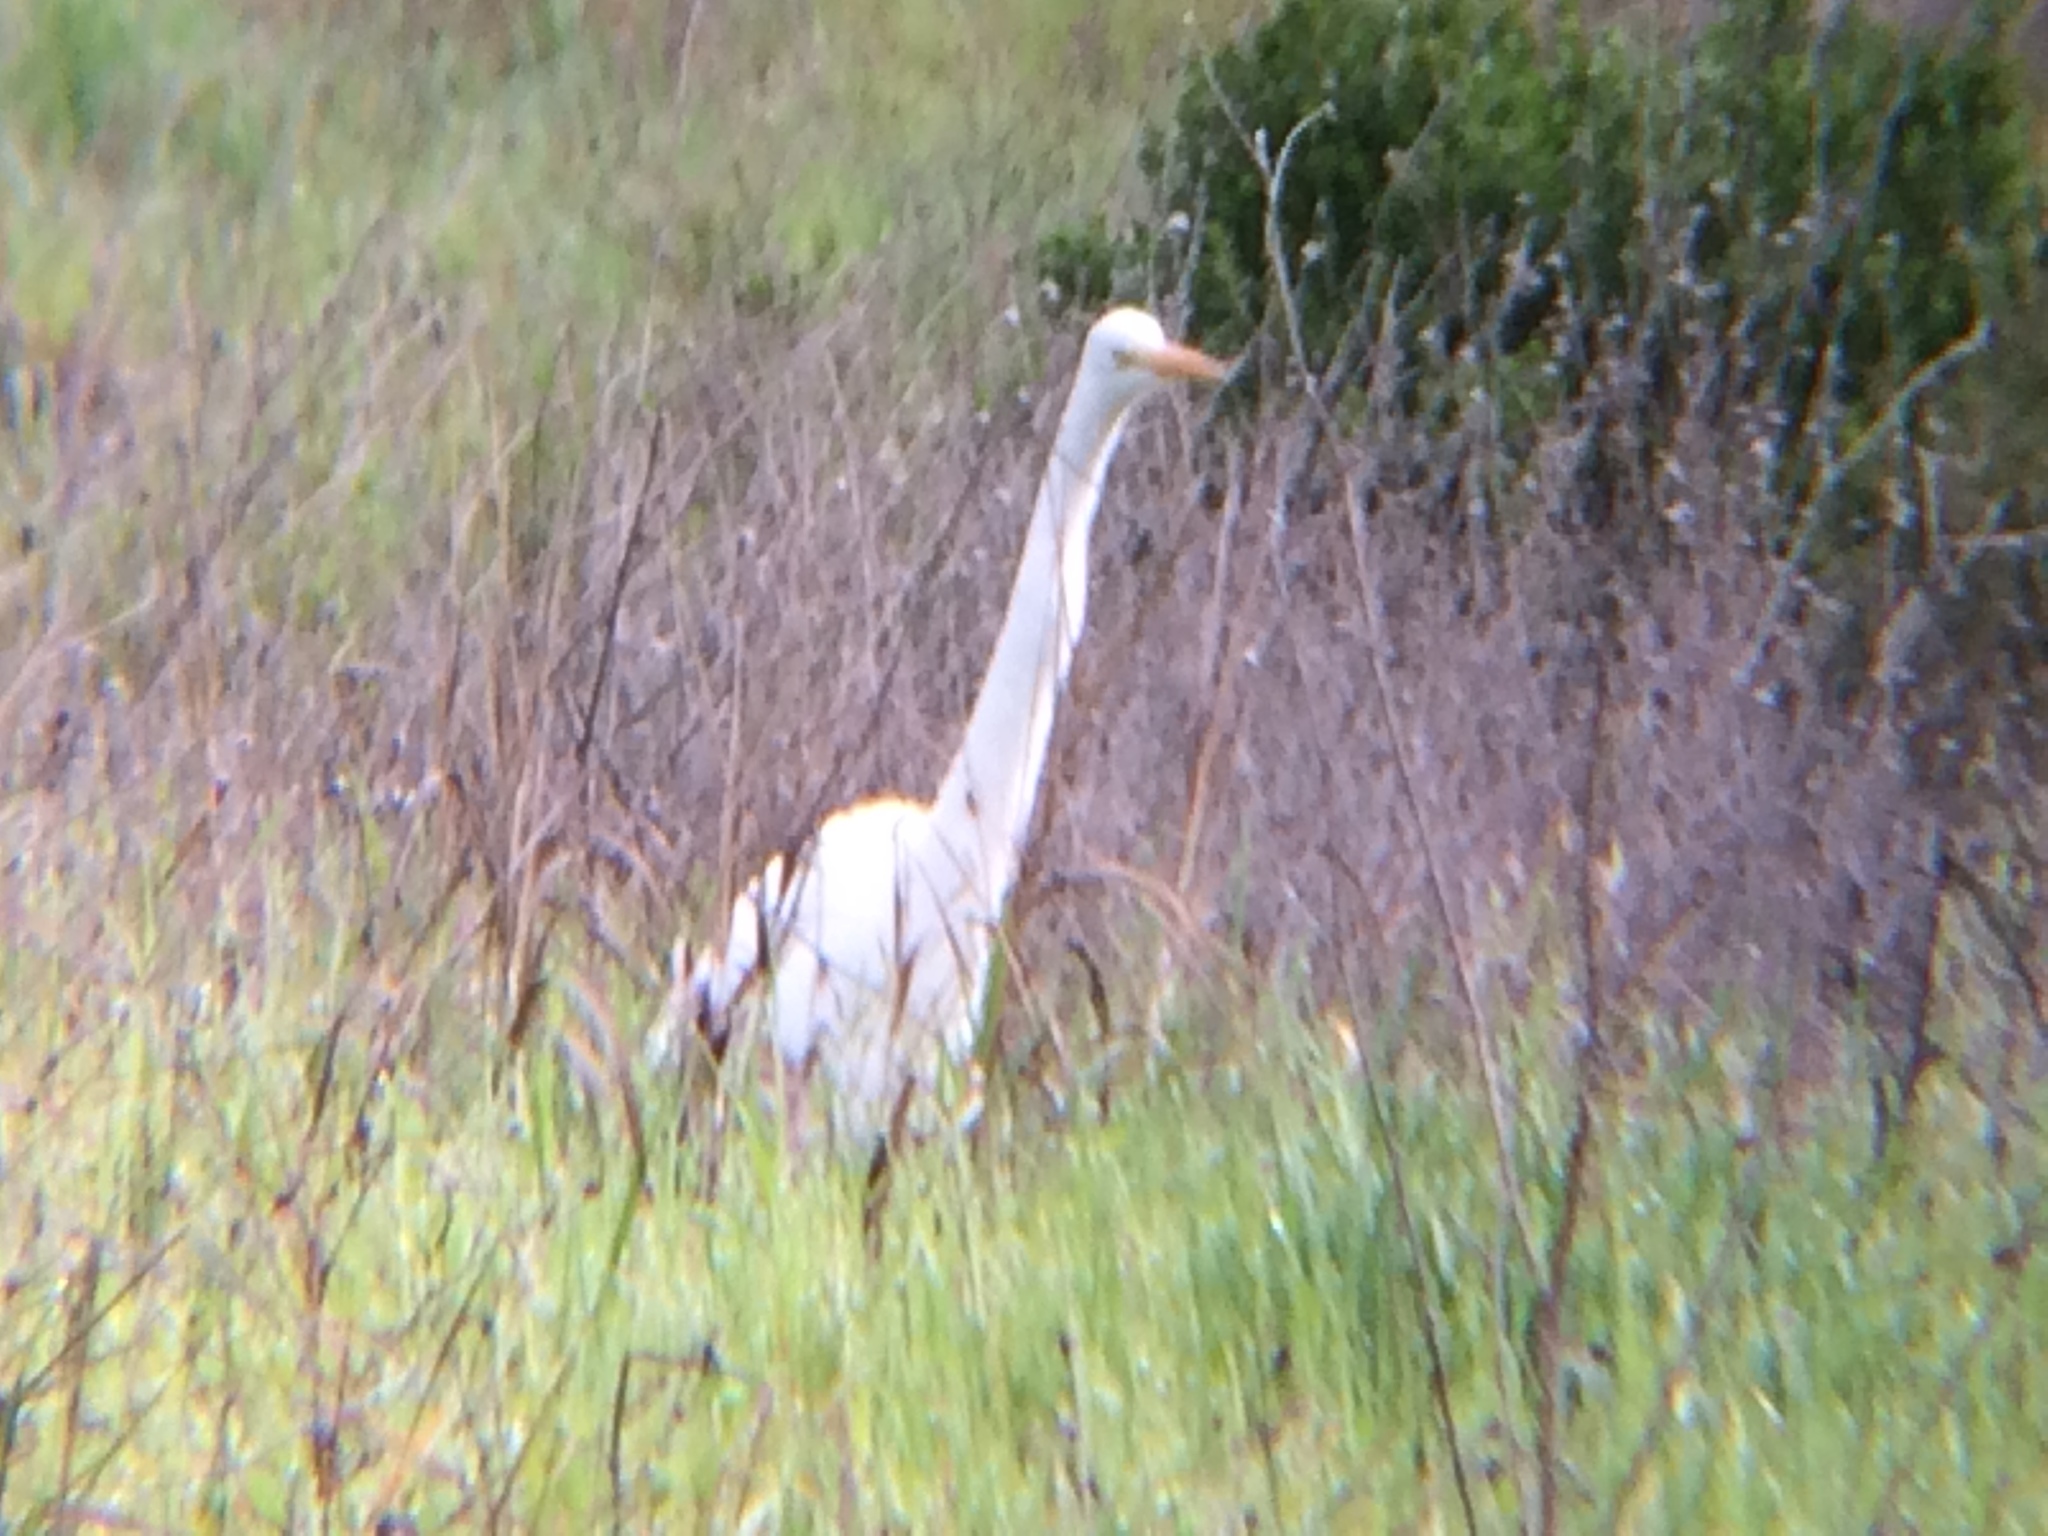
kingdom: Animalia
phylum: Chordata
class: Aves
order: Pelecaniformes
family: Ardeidae
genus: Ardea
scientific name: Ardea alba
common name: Great egret
